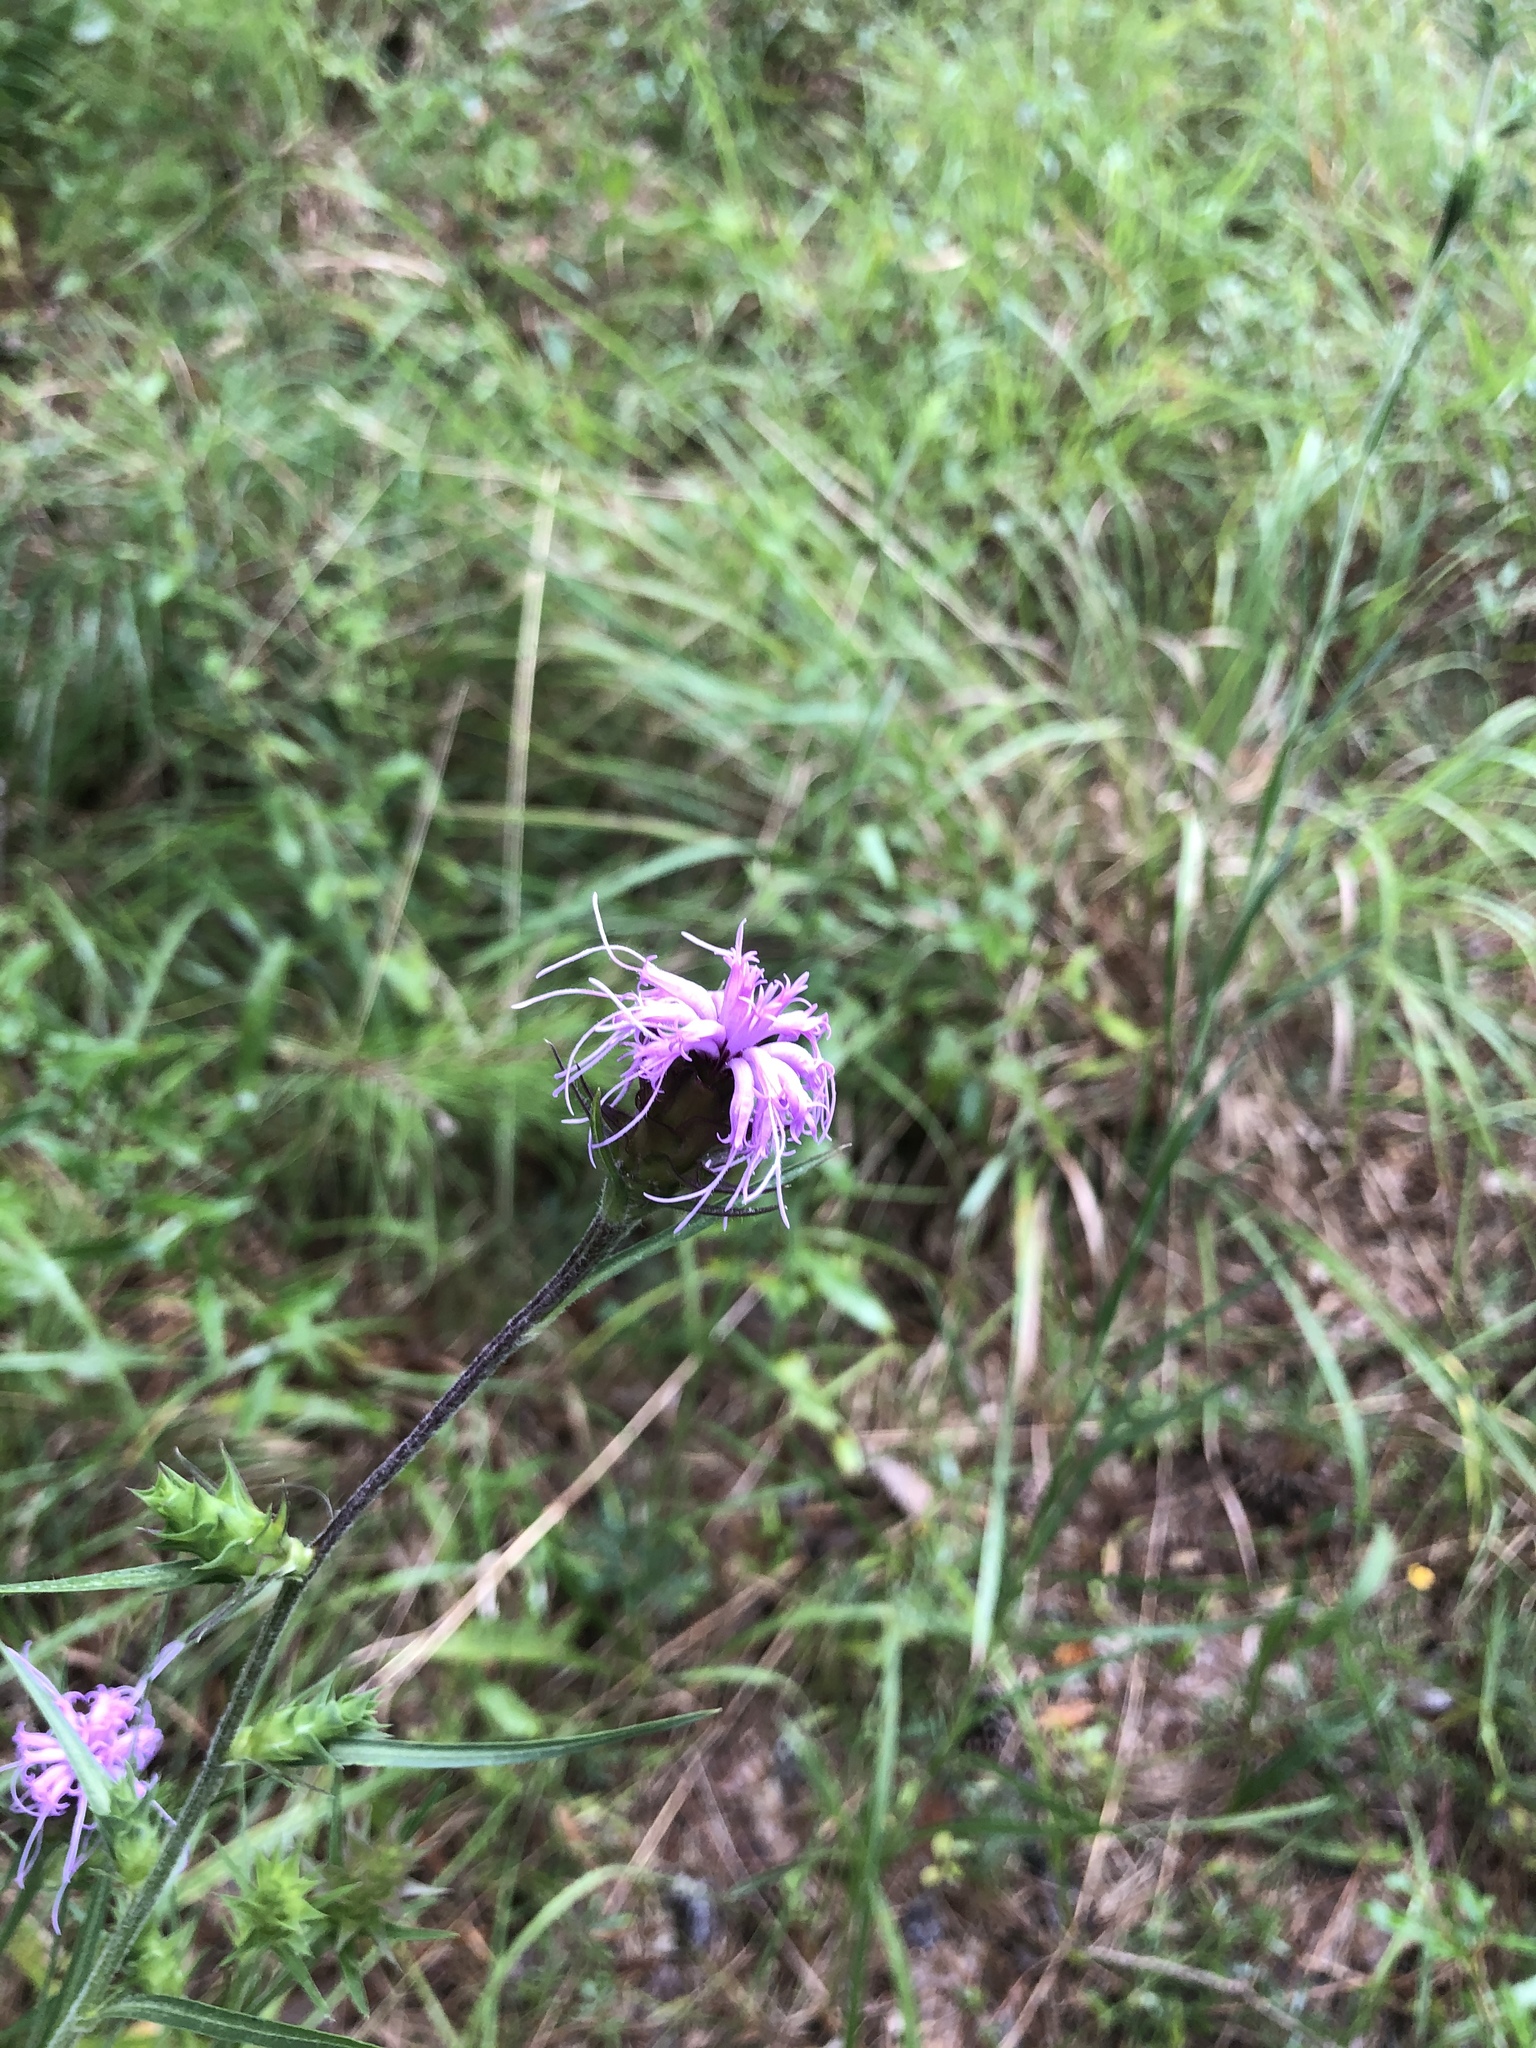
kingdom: Plantae
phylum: Tracheophyta
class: Magnoliopsida
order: Asterales
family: Asteraceae
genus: Liatris
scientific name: Liatris squarrosa
